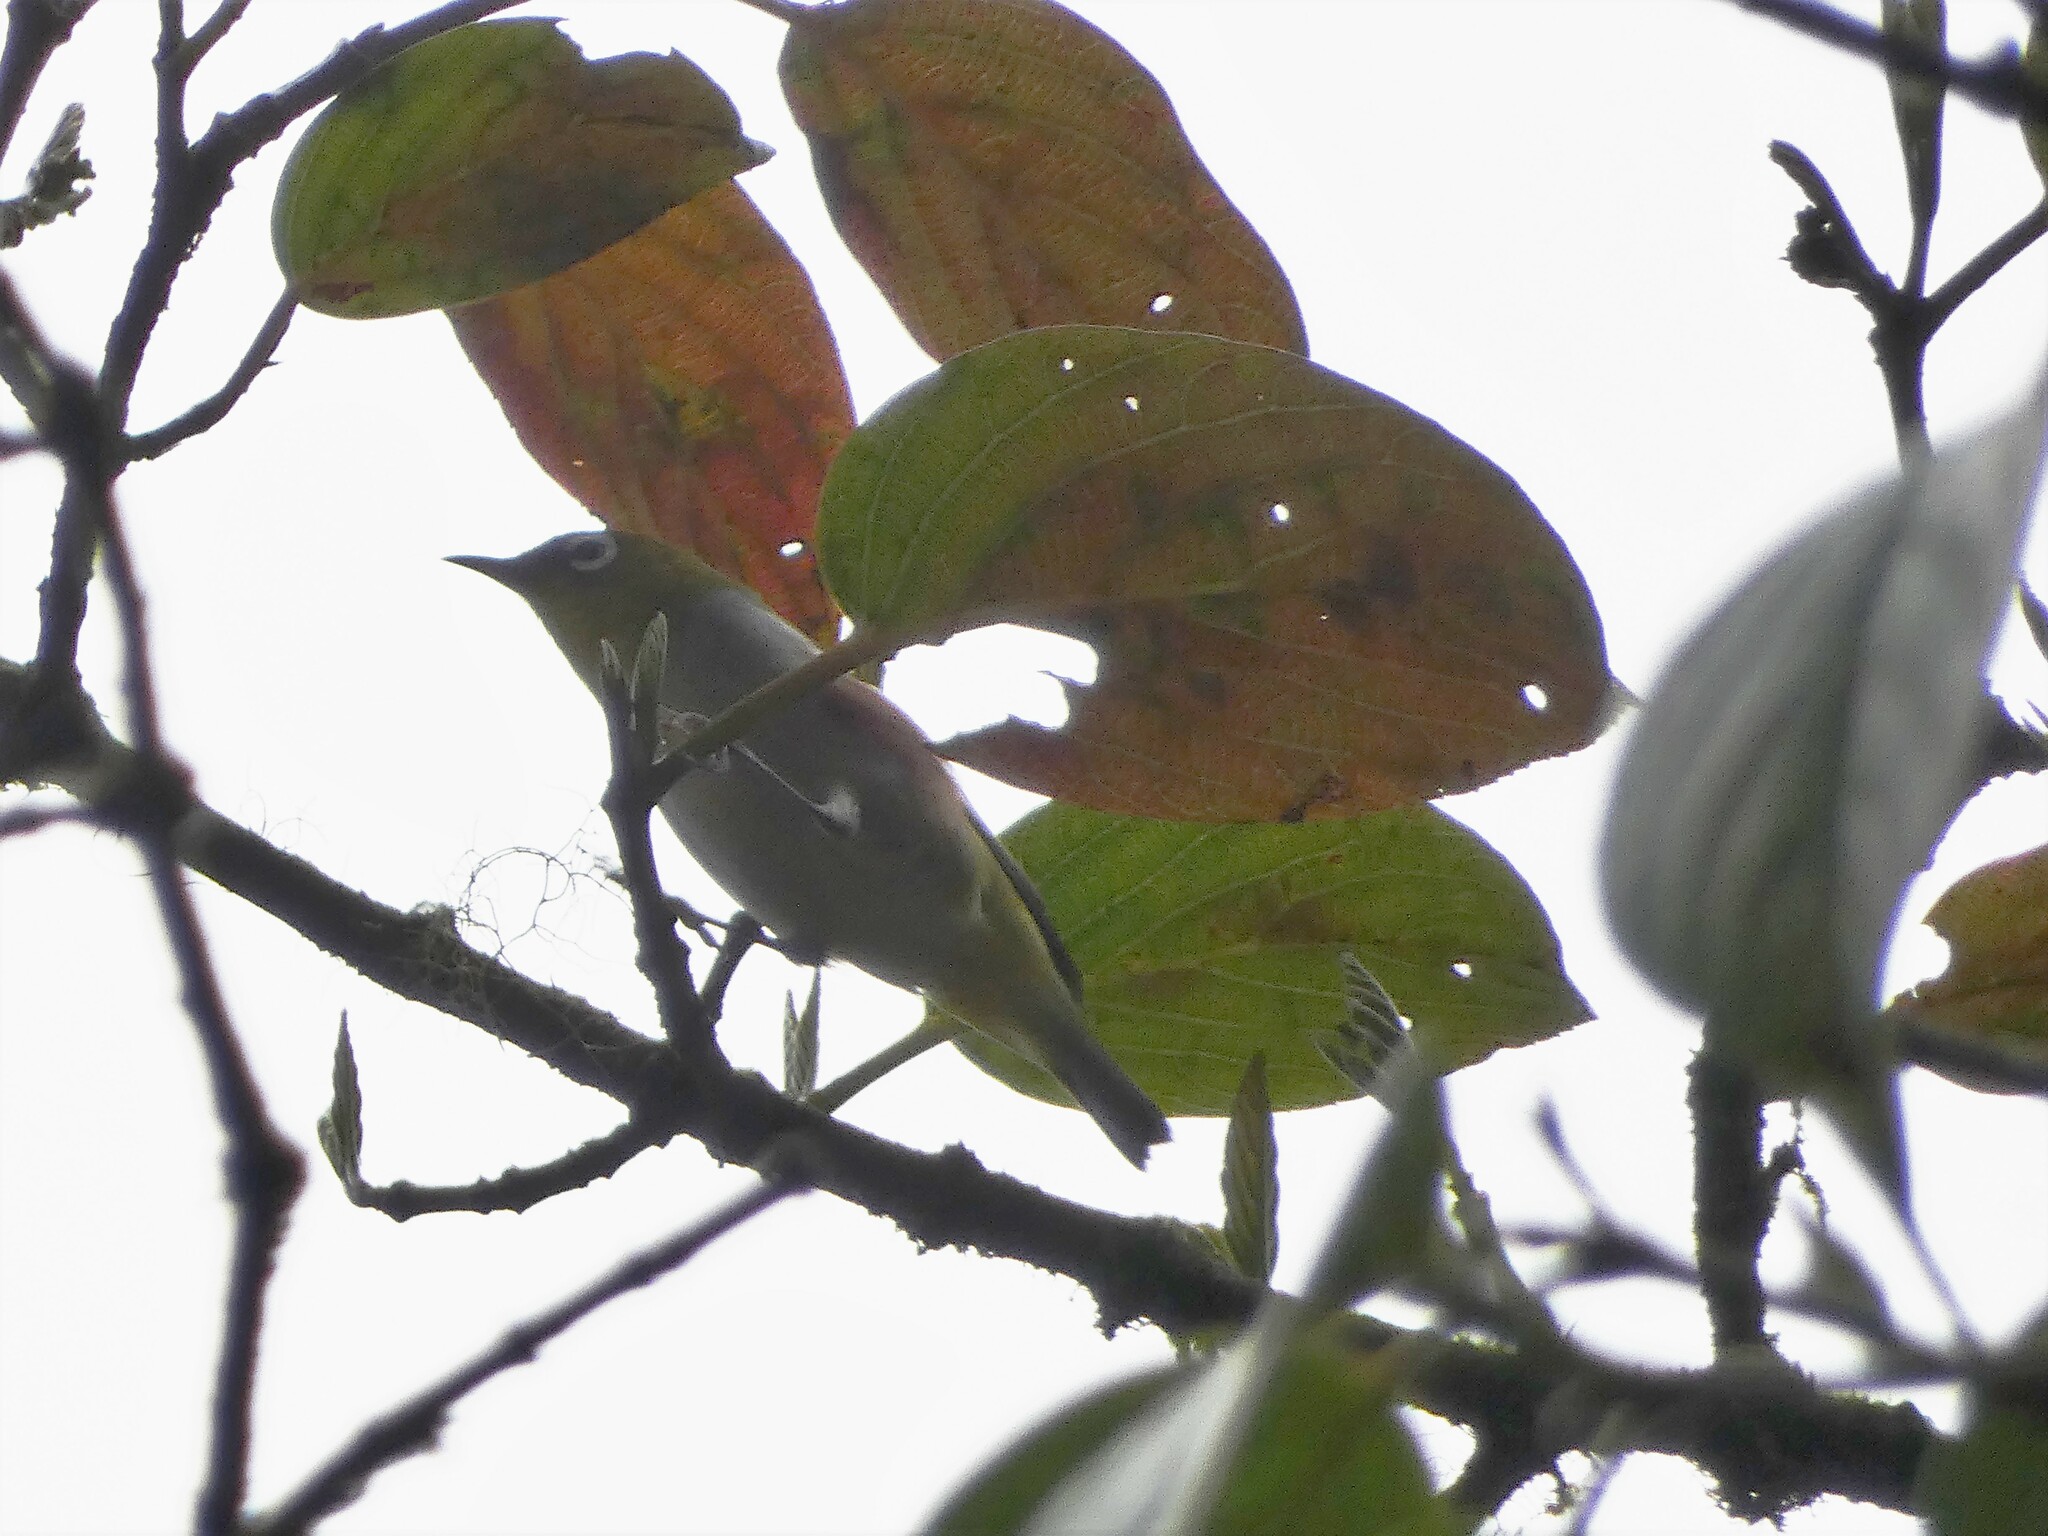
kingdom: Animalia
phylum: Chordata
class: Aves
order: Passeriformes
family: Zosteropidae
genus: Zosterops
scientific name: Zosterops erythropleurus
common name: Chestnut-flanked white-eye
